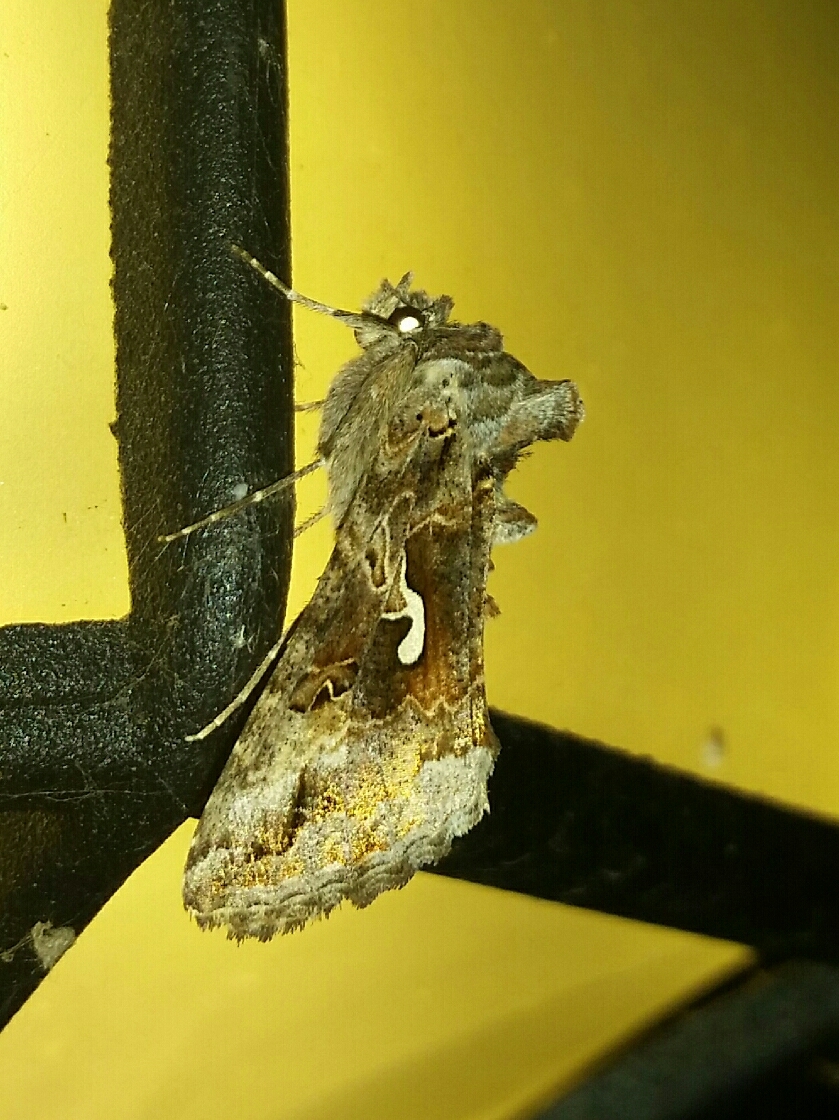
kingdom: Animalia
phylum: Arthropoda
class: Insecta
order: Lepidoptera
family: Noctuidae
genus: Autographa
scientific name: Autographa californica
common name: Alfalfa looper
